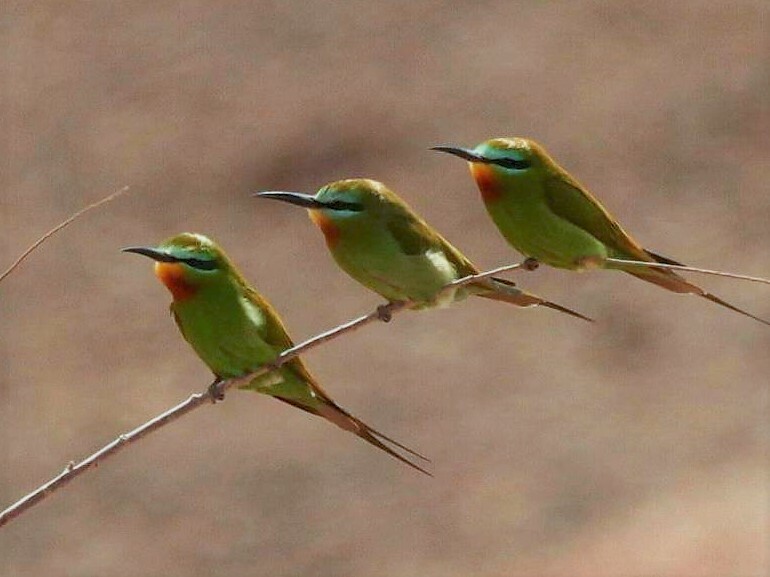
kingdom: Animalia
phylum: Chordata
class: Aves
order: Coraciiformes
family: Meropidae
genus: Merops
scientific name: Merops persicus
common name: Blue-cheeked bee-eater
